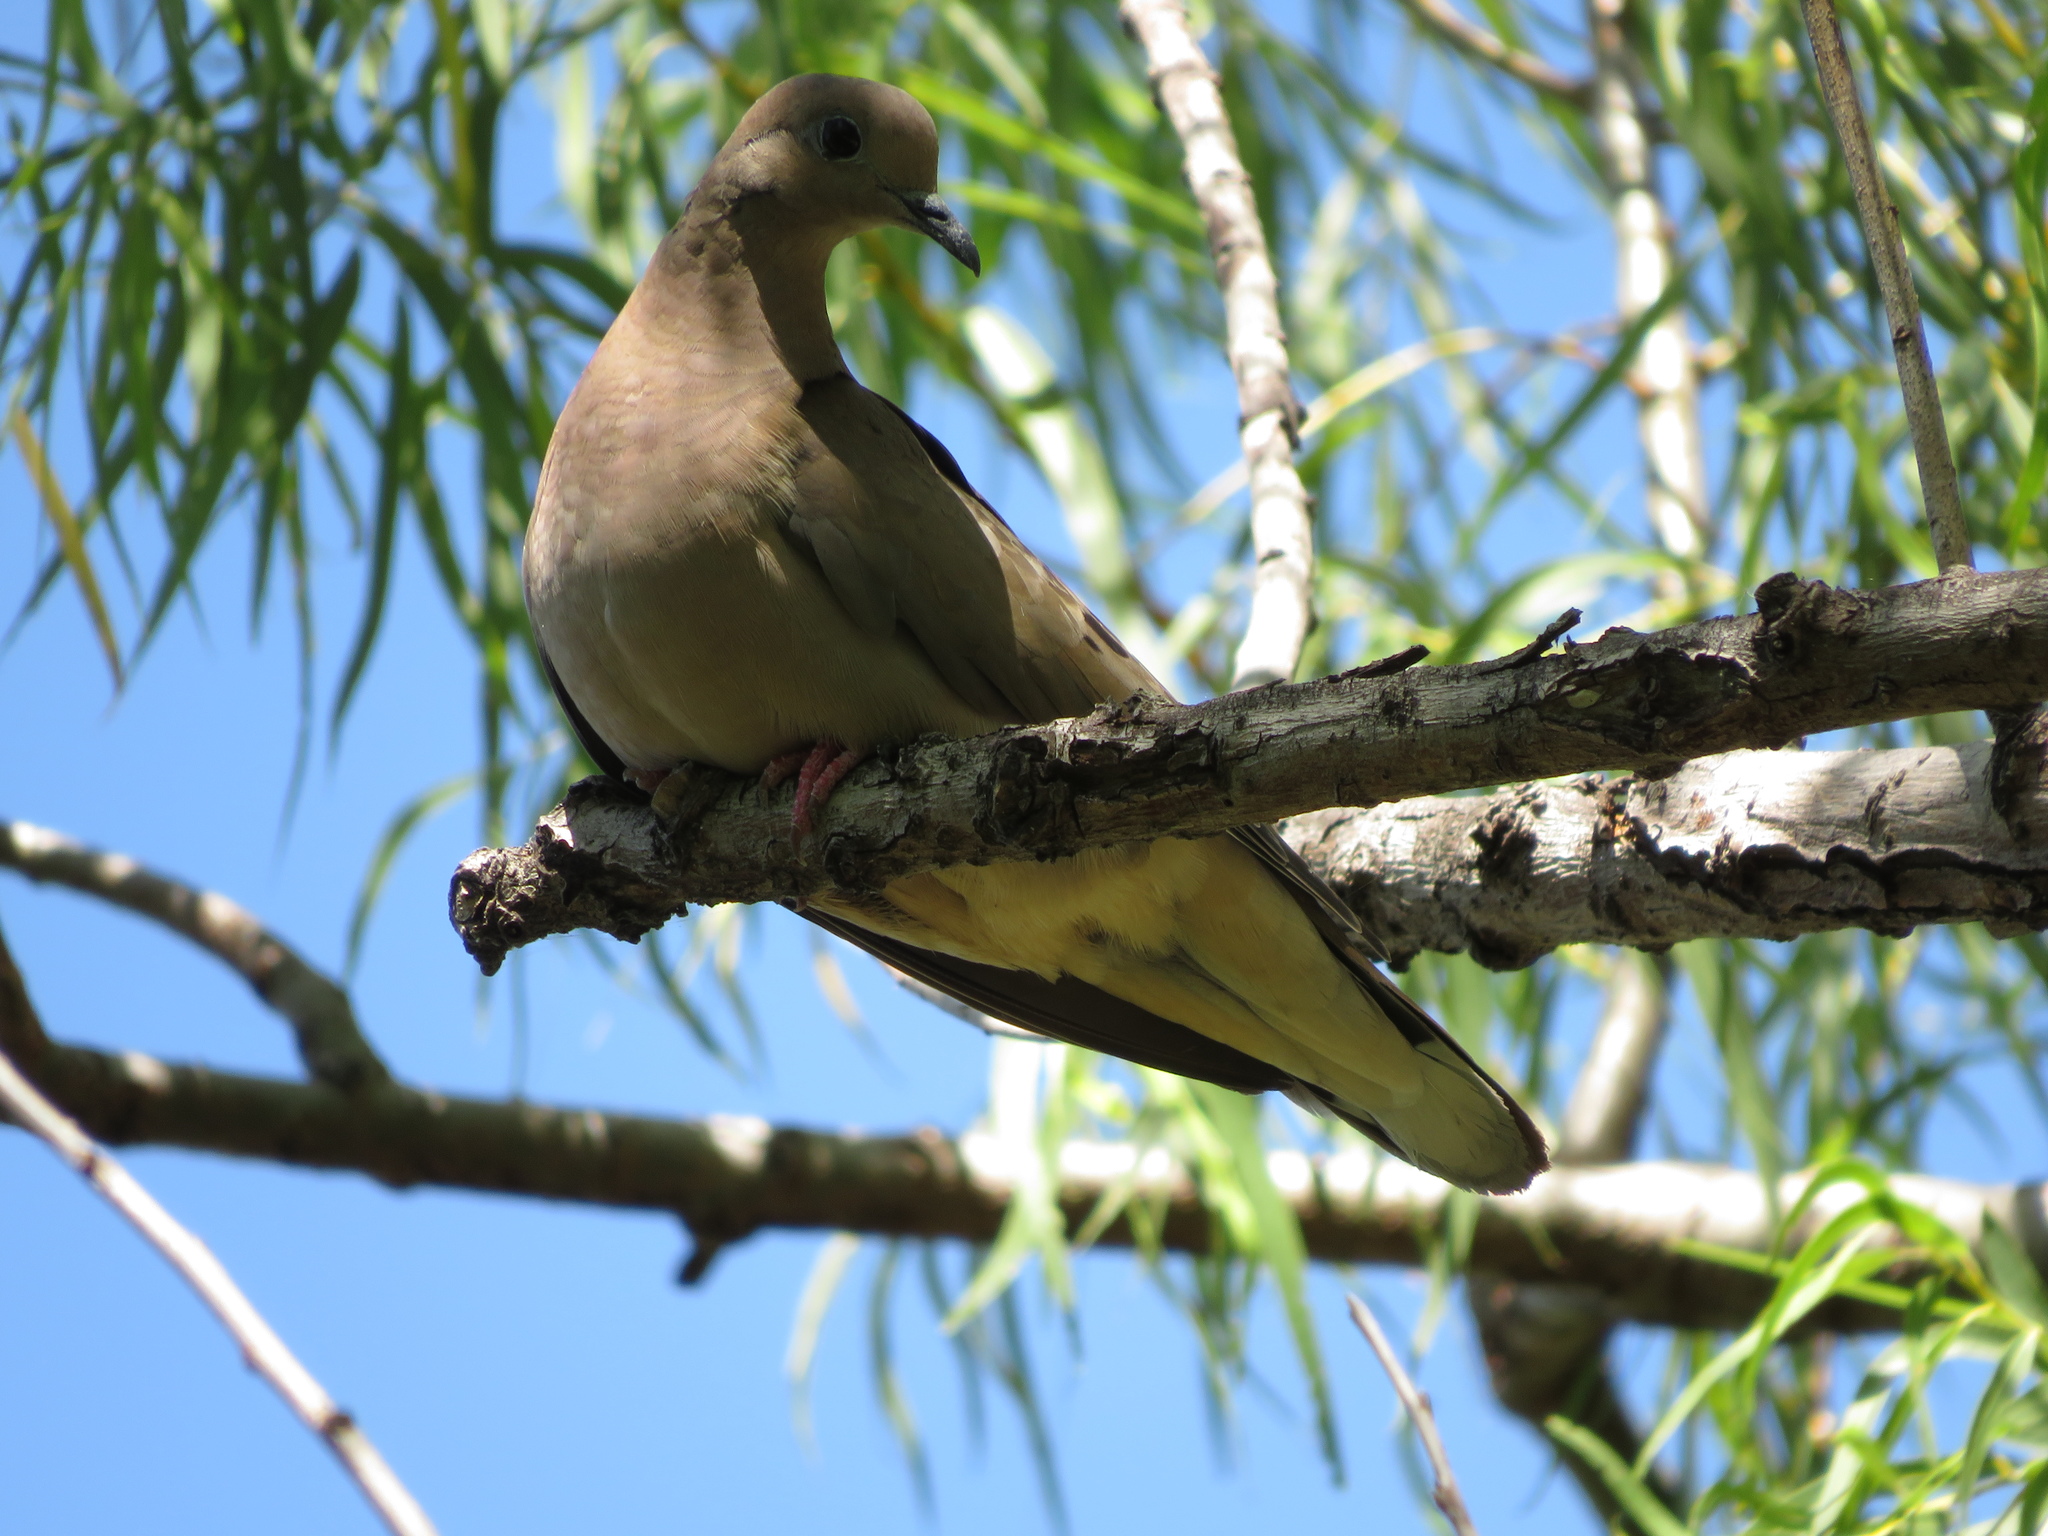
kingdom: Animalia
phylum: Chordata
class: Aves
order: Columbiformes
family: Columbidae
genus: Zenaida
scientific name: Zenaida auriculata
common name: Eared dove
